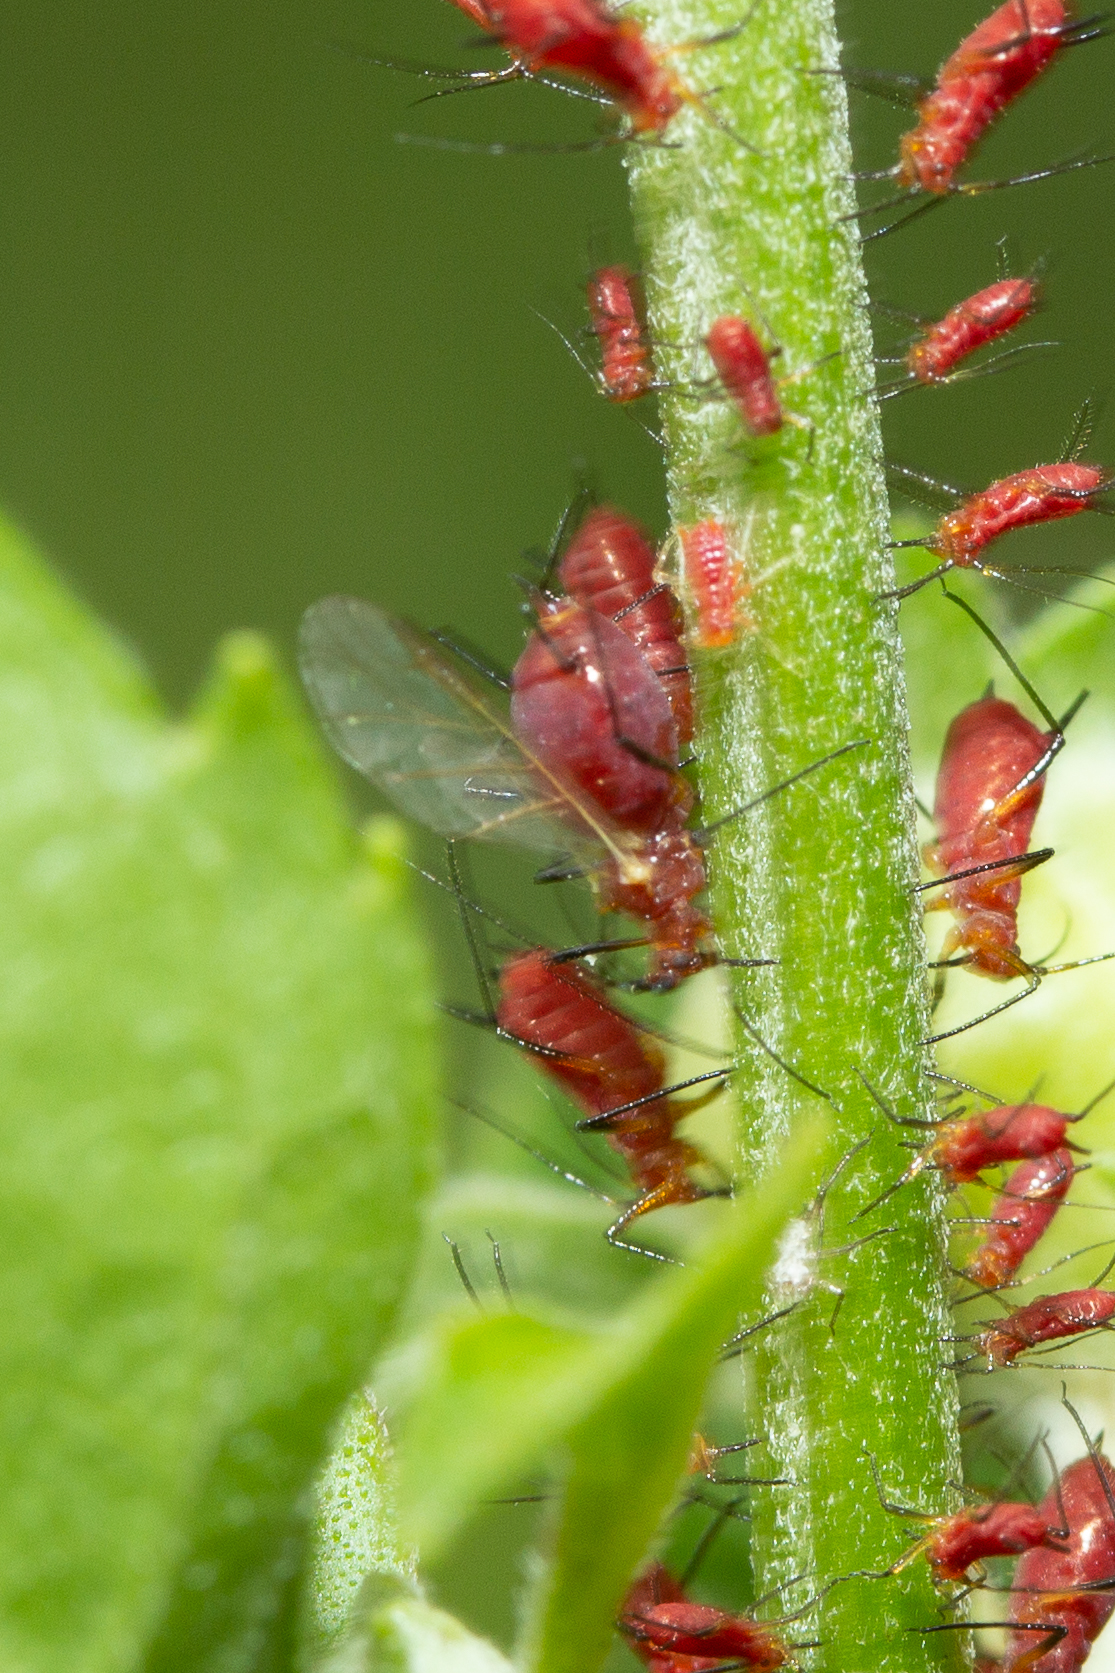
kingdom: Animalia
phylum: Arthropoda
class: Insecta
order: Hemiptera
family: Aphididae
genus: Uroleucon
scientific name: Uroleucon obscuricaudatum
